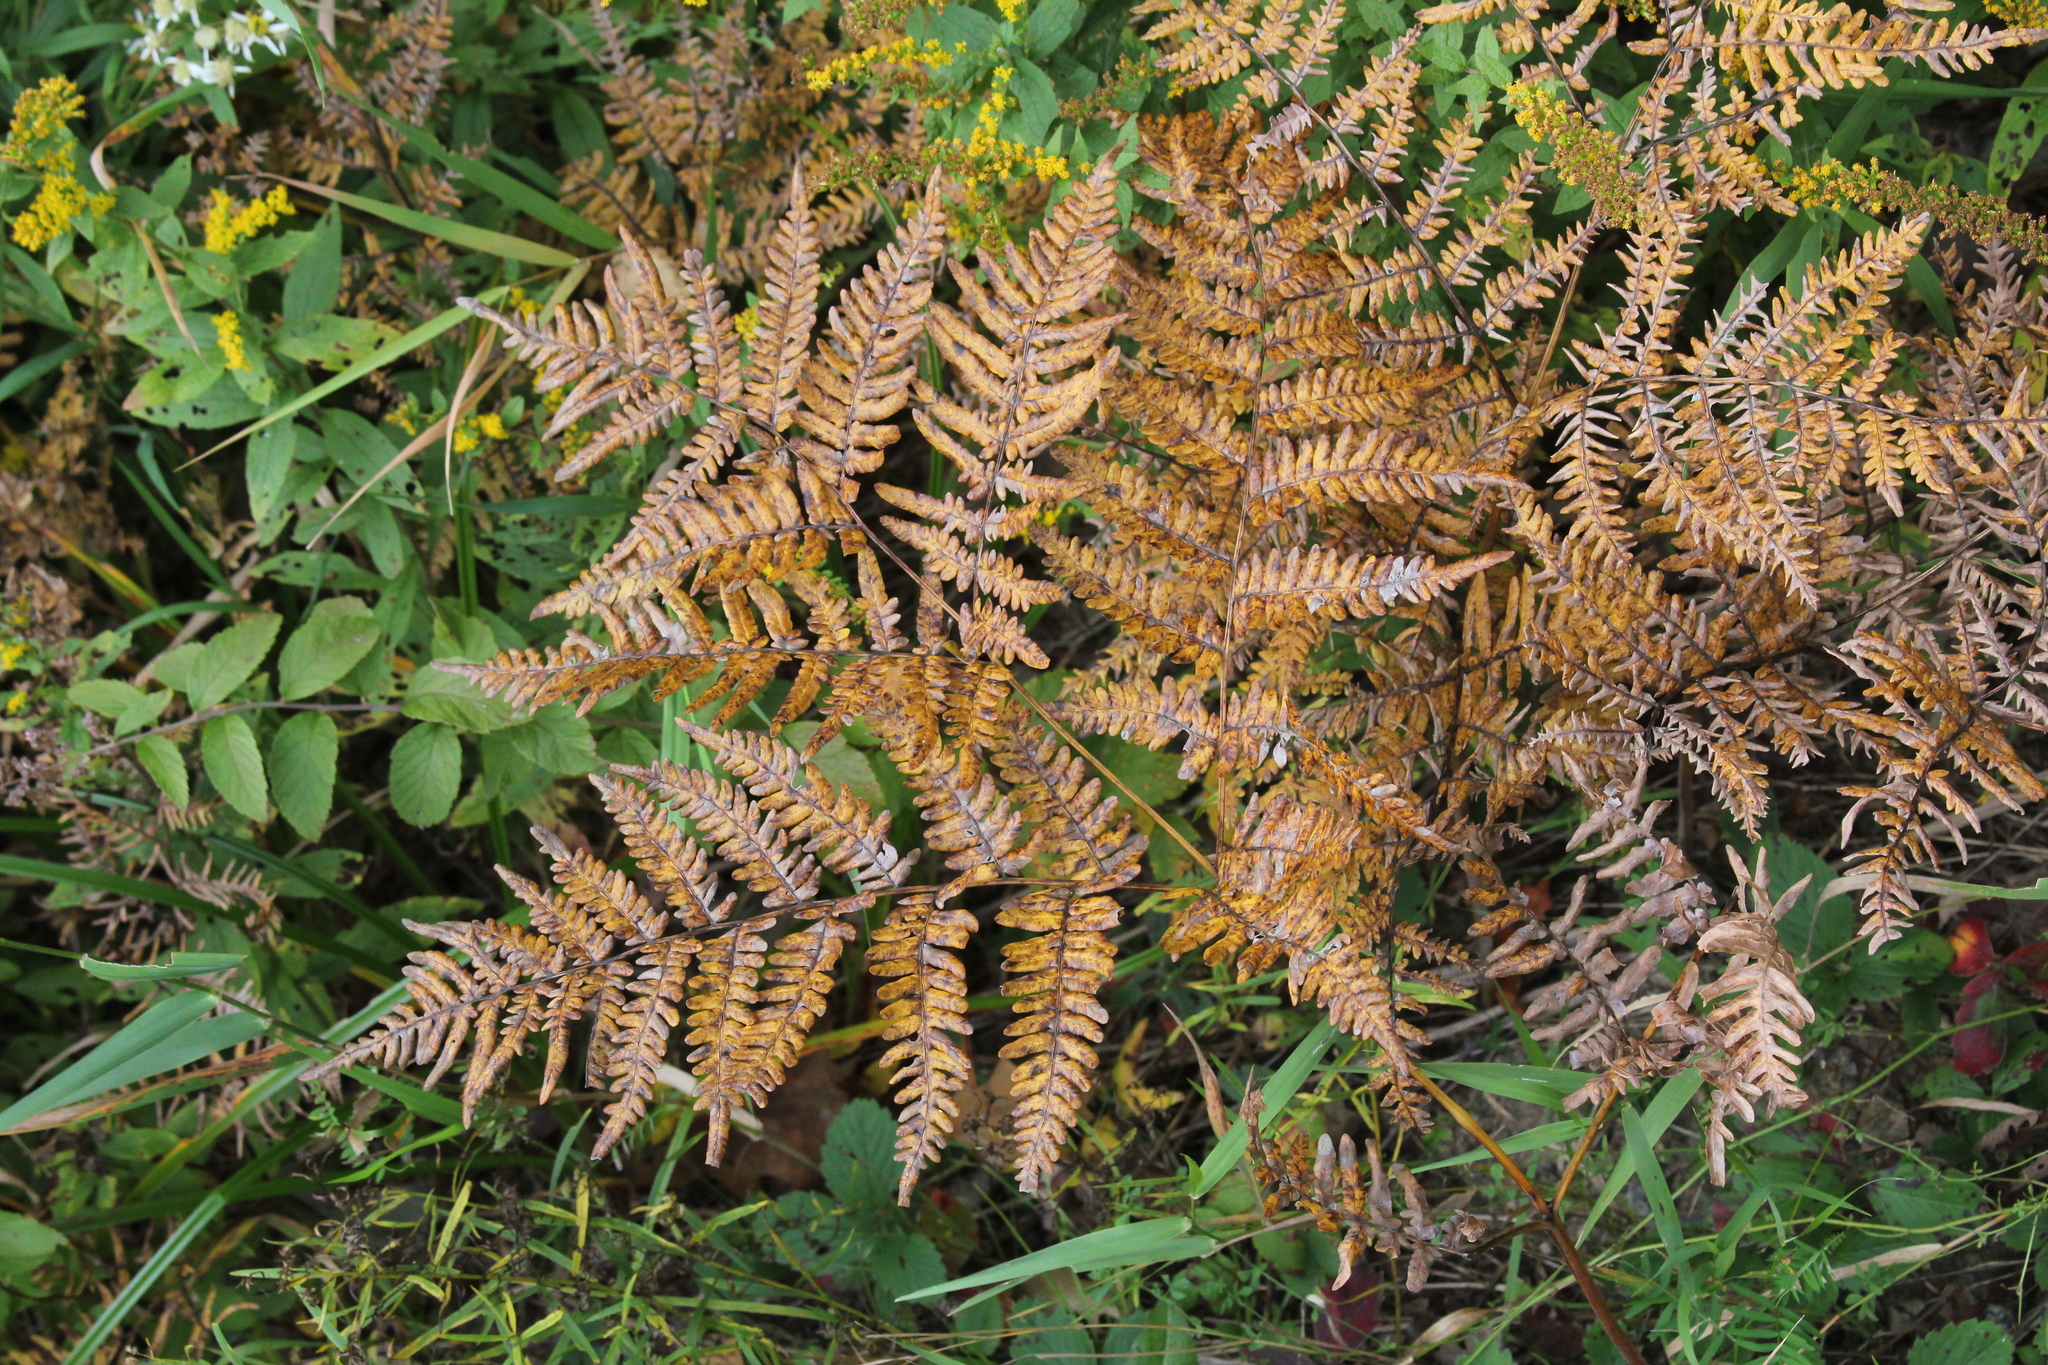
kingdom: Plantae
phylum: Tracheophyta
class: Polypodiopsida
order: Polypodiales
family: Dennstaedtiaceae
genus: Pteridium
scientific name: Pteridium aquilinum
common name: Bracken
